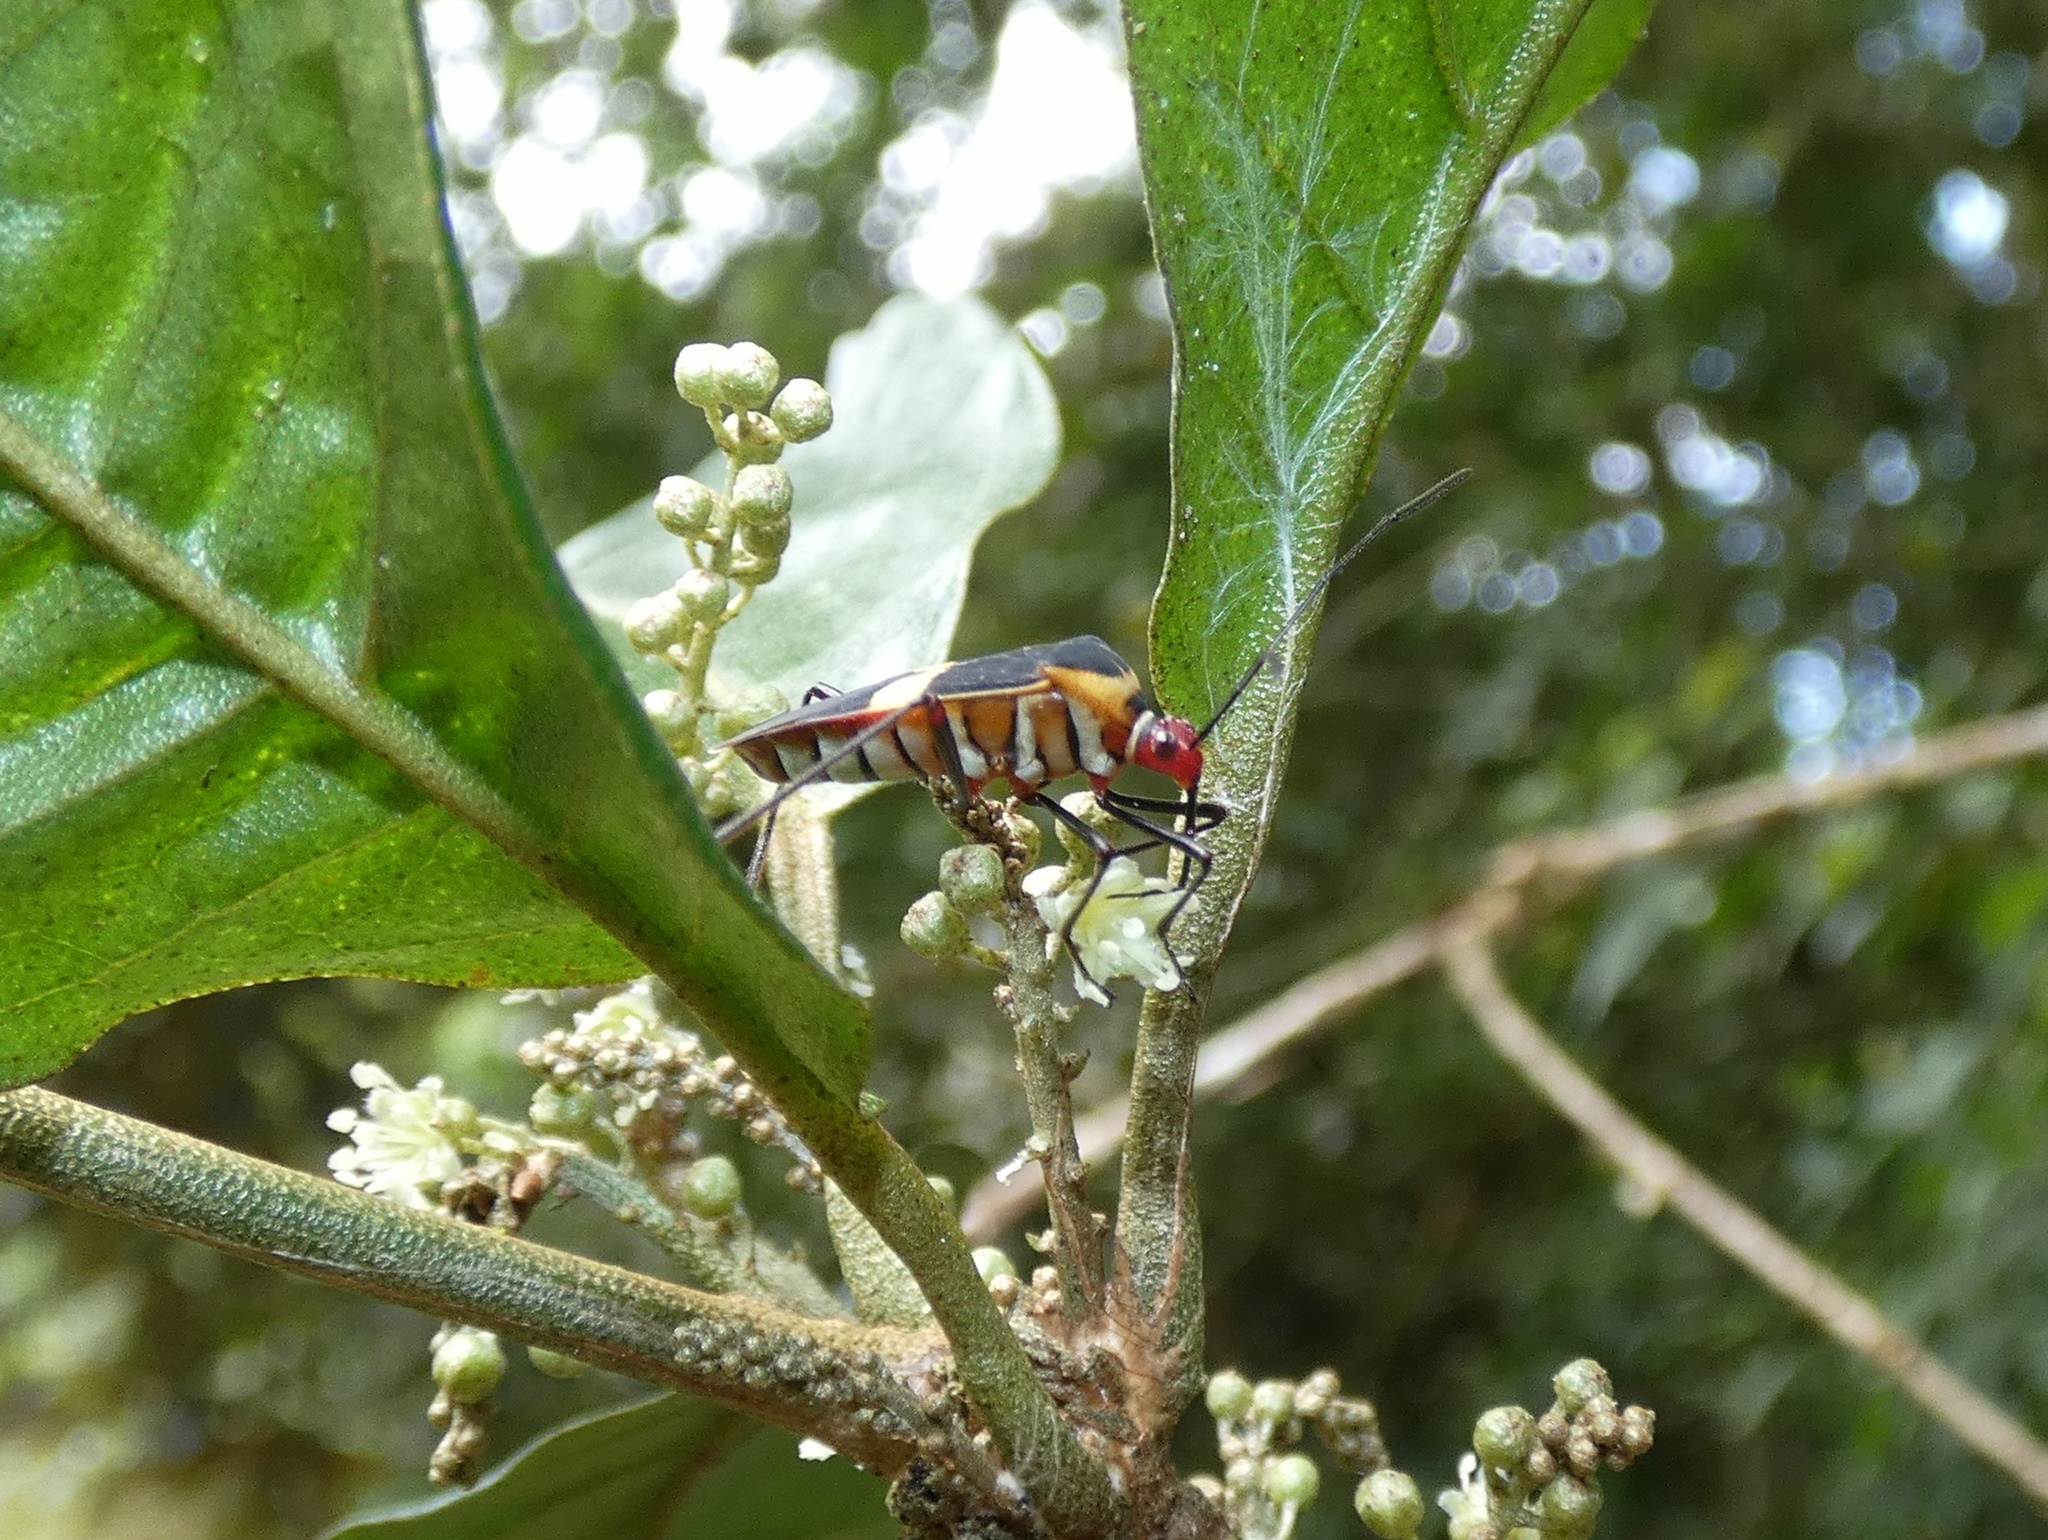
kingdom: Animalia
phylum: Arthropoda
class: Insecta
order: Hemiptera
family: Coreidae
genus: Hypselonotus
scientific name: Hypselonotus interruptus
